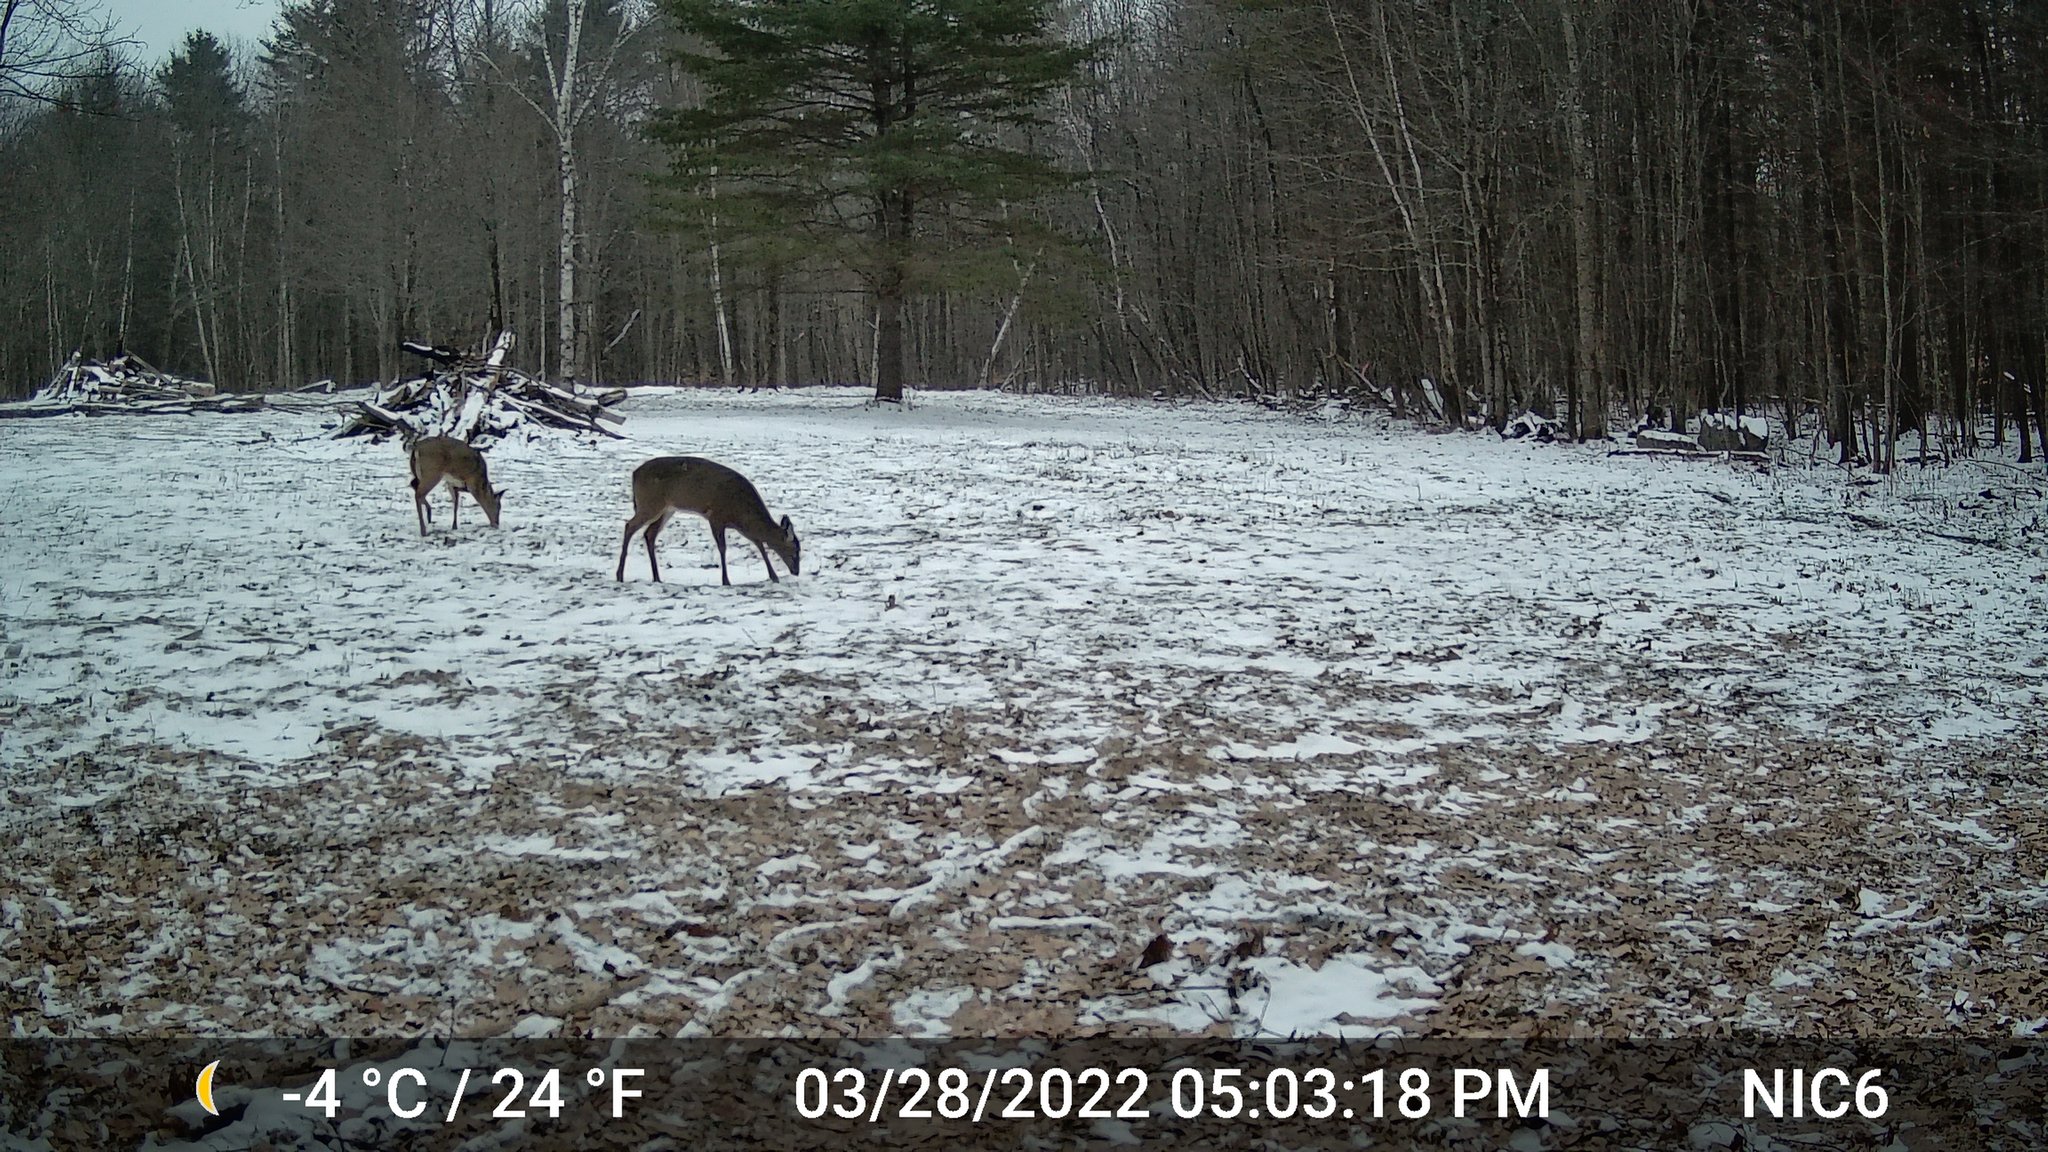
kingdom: Animalia
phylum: Chordata
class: Mammalia
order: Artiodactyla
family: Cervidae
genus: Odocoileus
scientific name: Odocoileus virginianus
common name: White-tailed deer
